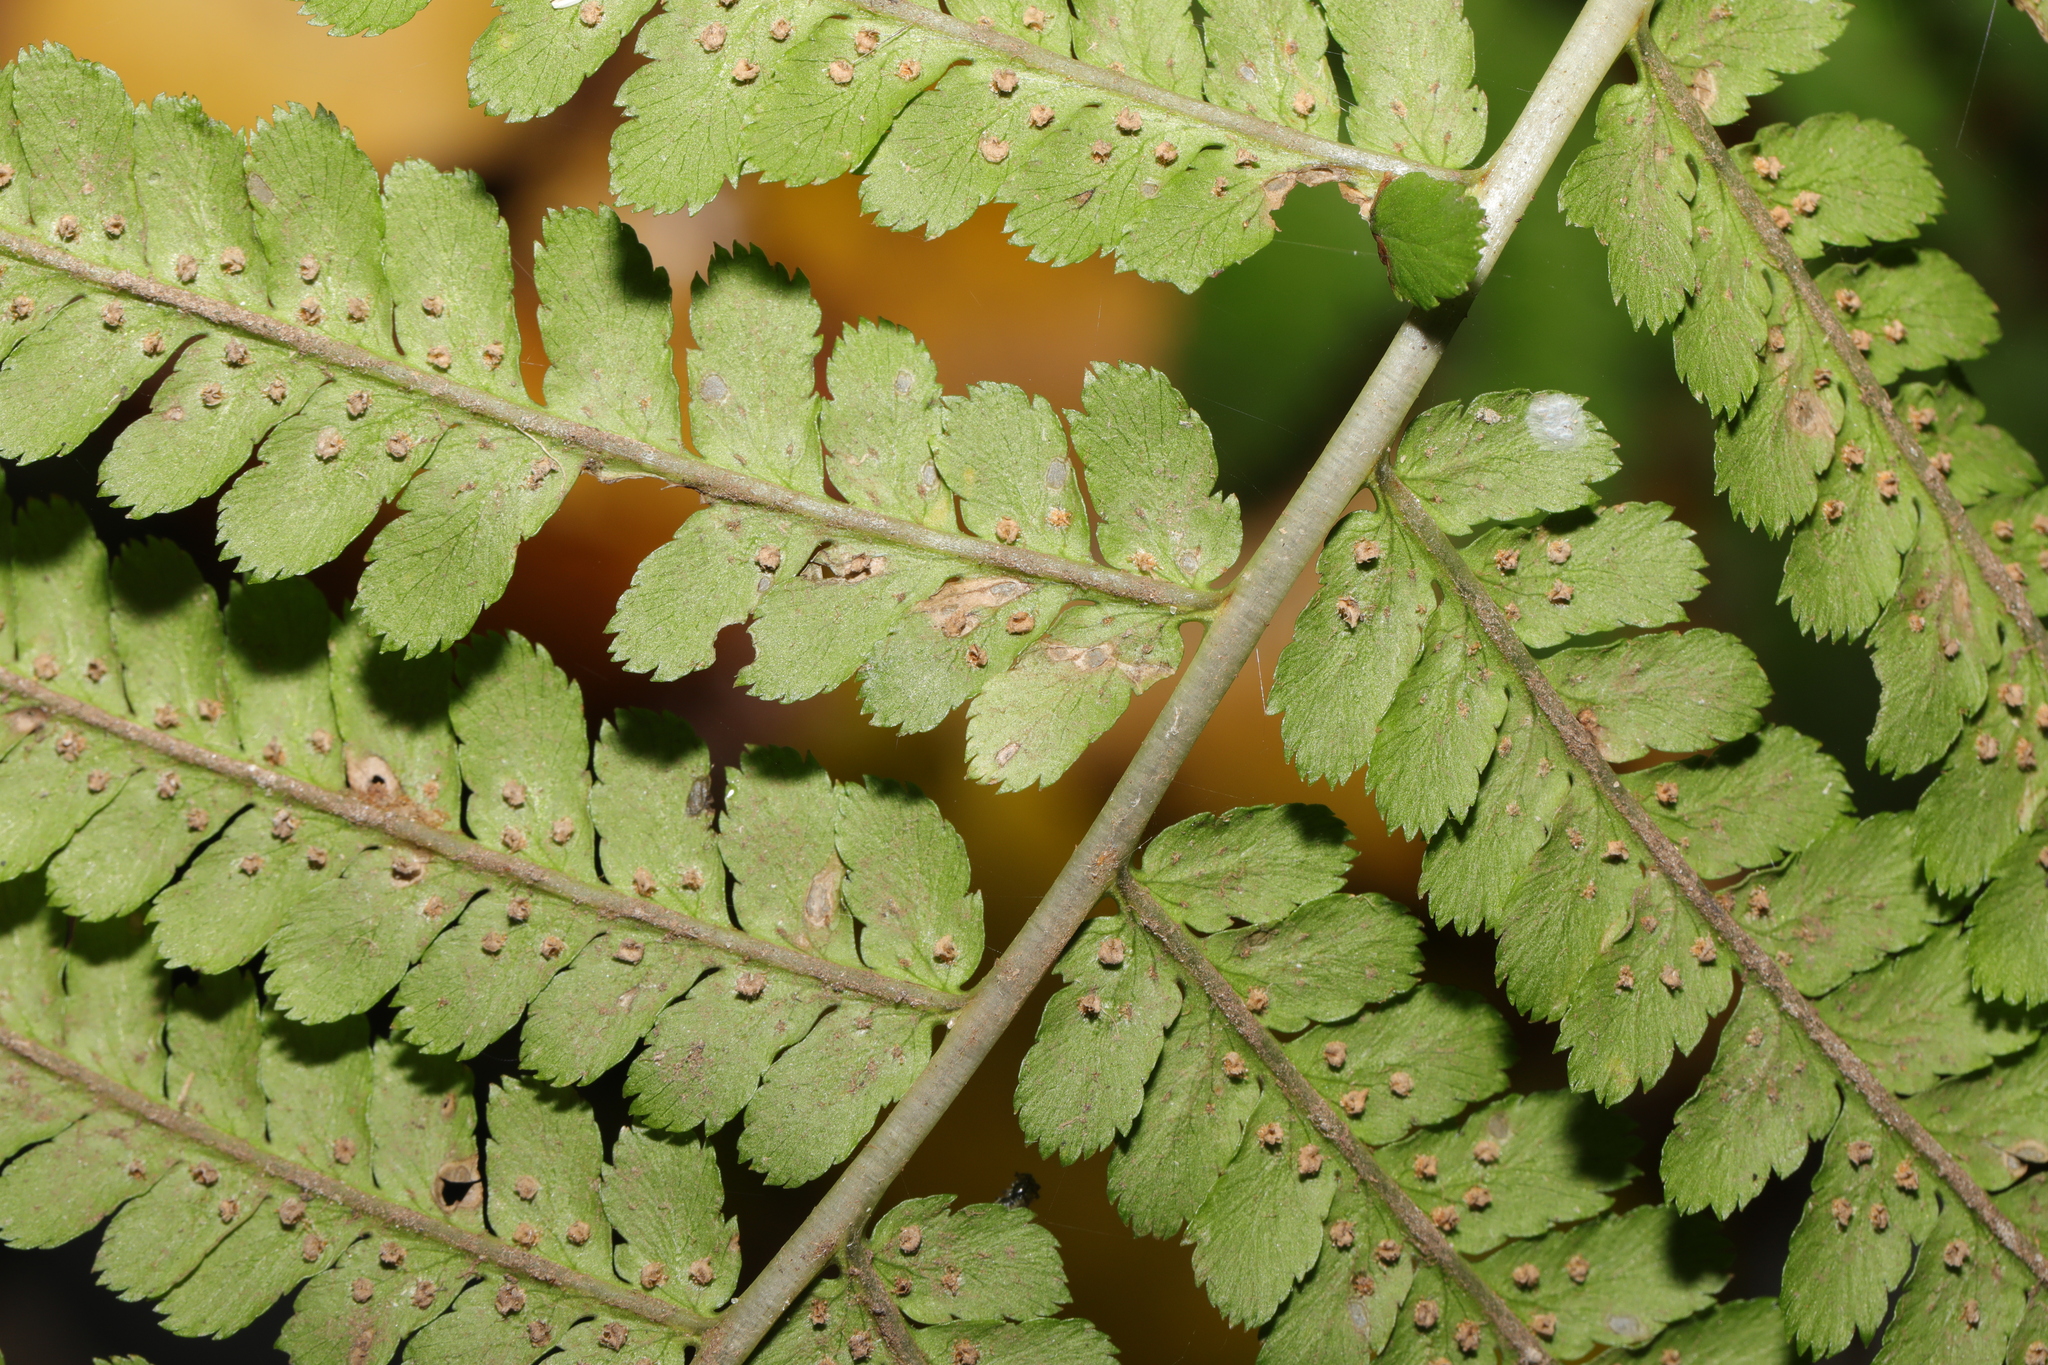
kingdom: Plantae
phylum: Tracheophyta
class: Polypodiopsida
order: Polypodiales
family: Dryopteridaceae
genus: Dryopteris
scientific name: Dryopteris filix-mas
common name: Male fern
